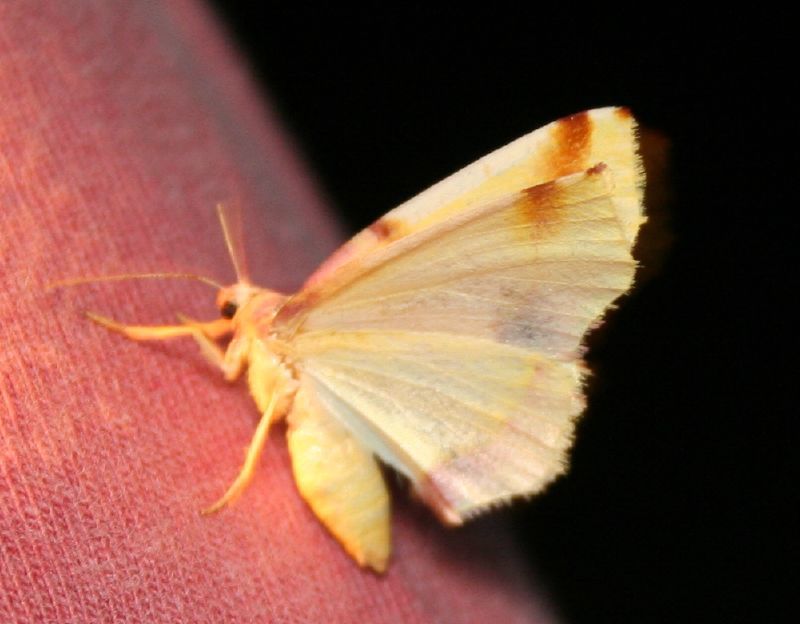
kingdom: Animalia
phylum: Arthropoda
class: Insecta
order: Lepidoptera
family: Geometridae
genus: Plagodis
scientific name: Plagodis serinaria
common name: Lemon plagodis
